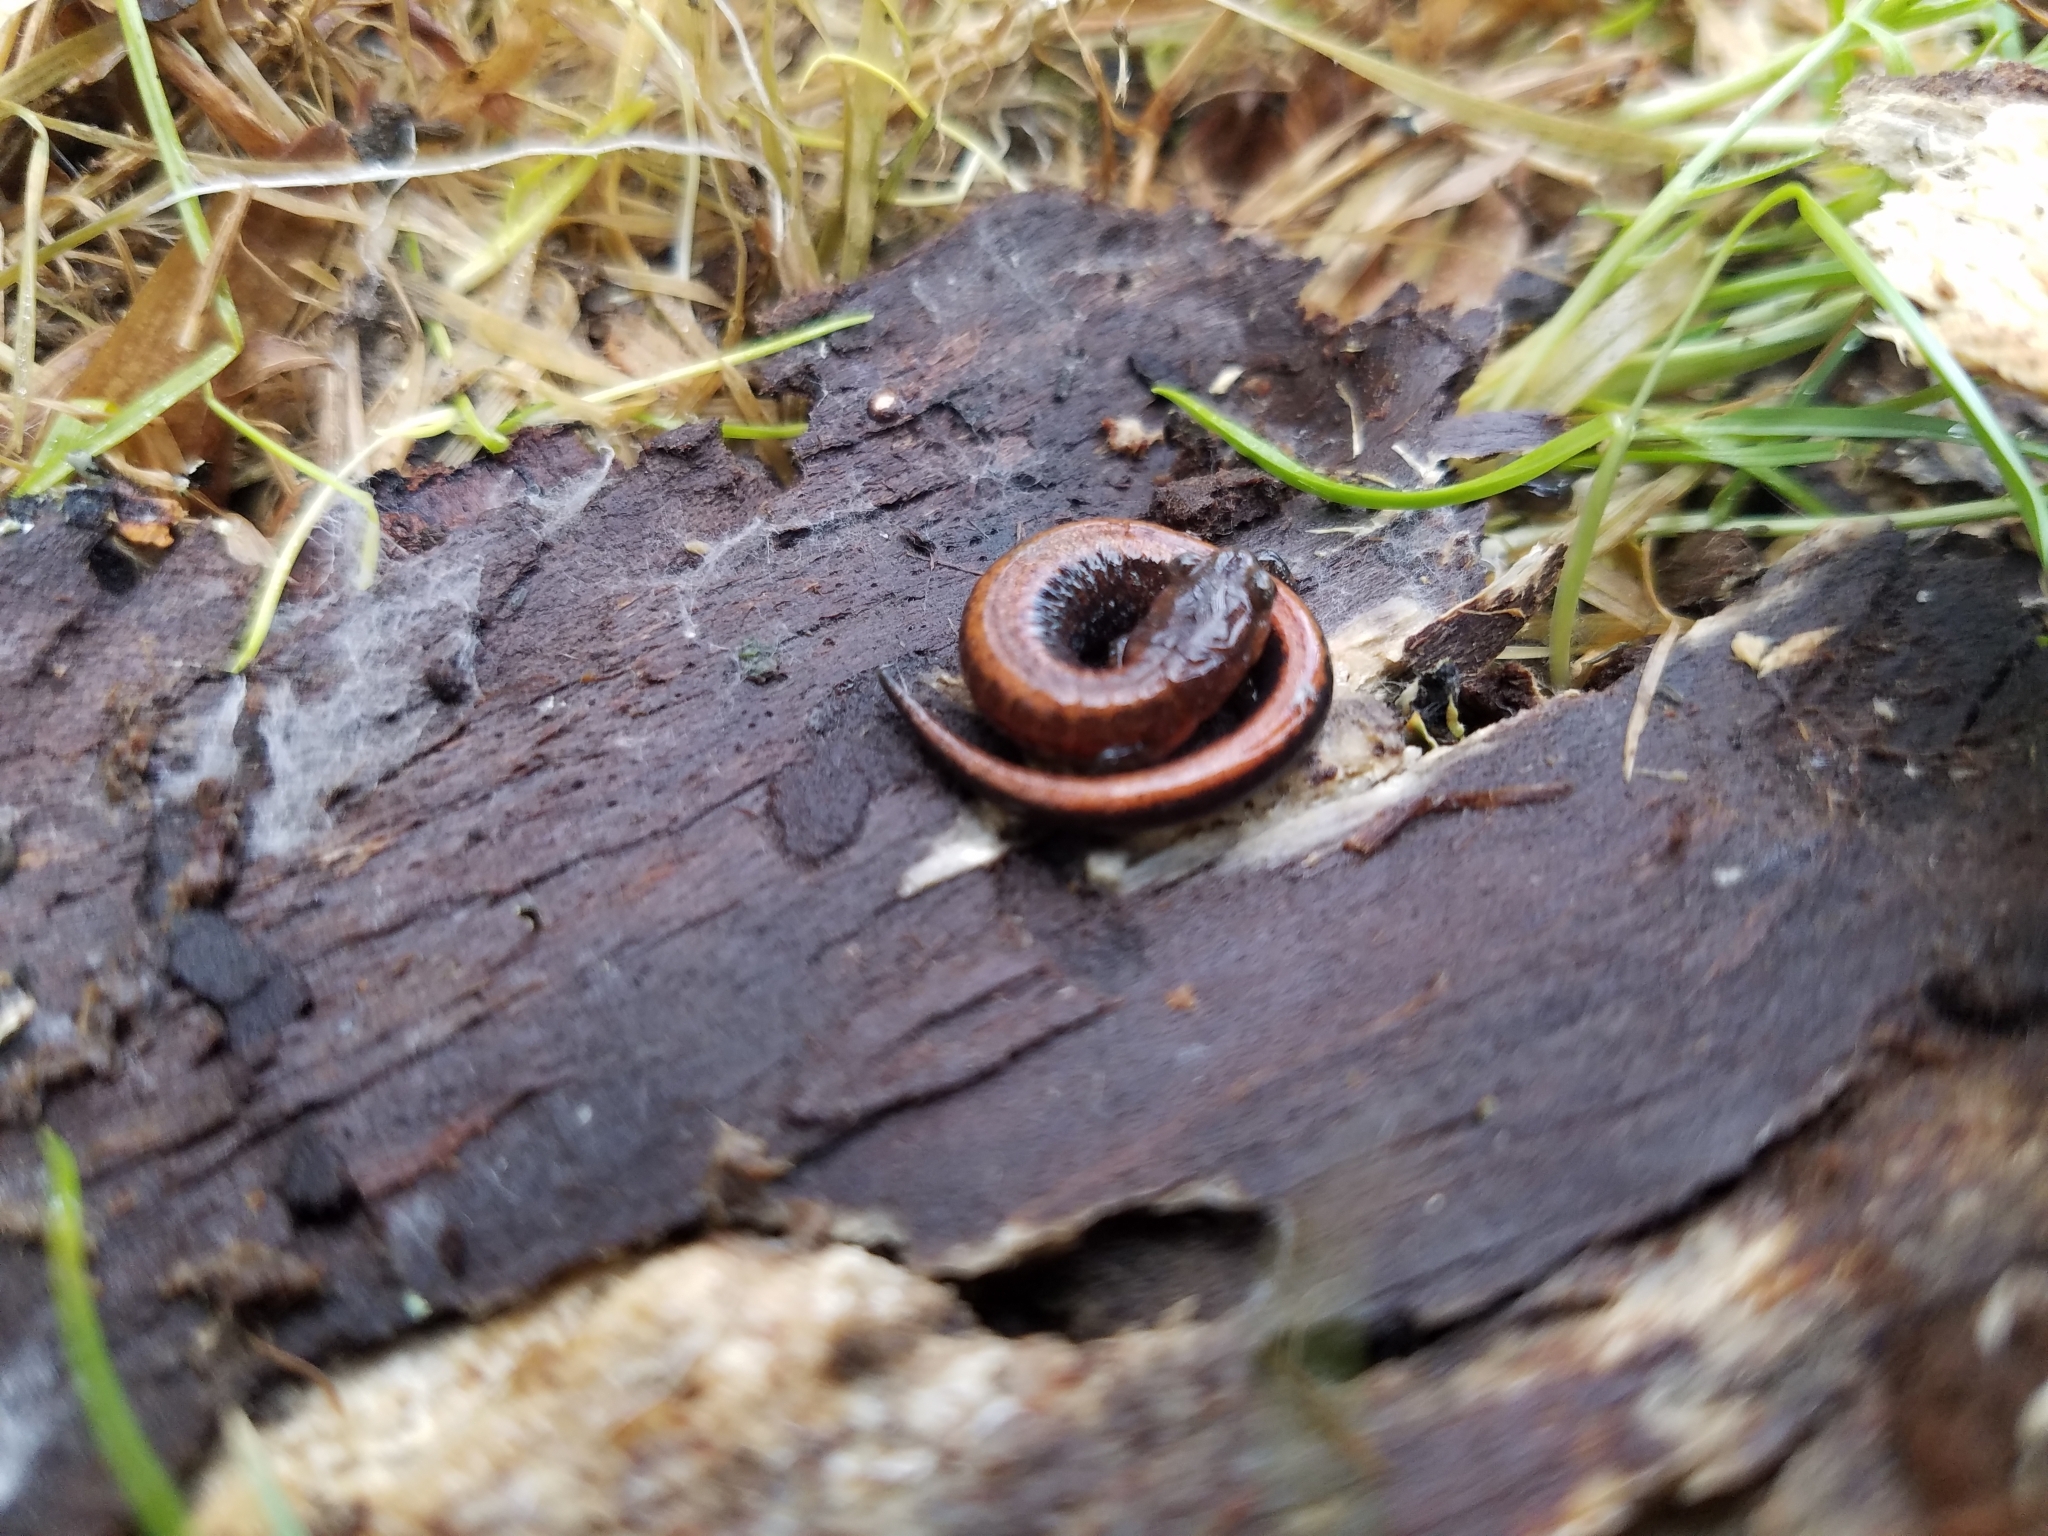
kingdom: Animalia
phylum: Chordata
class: Amphibia
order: Caudata
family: Plethodontidae
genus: Plethodon
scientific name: Plethodon serratus
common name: Southern red-backed salamander
